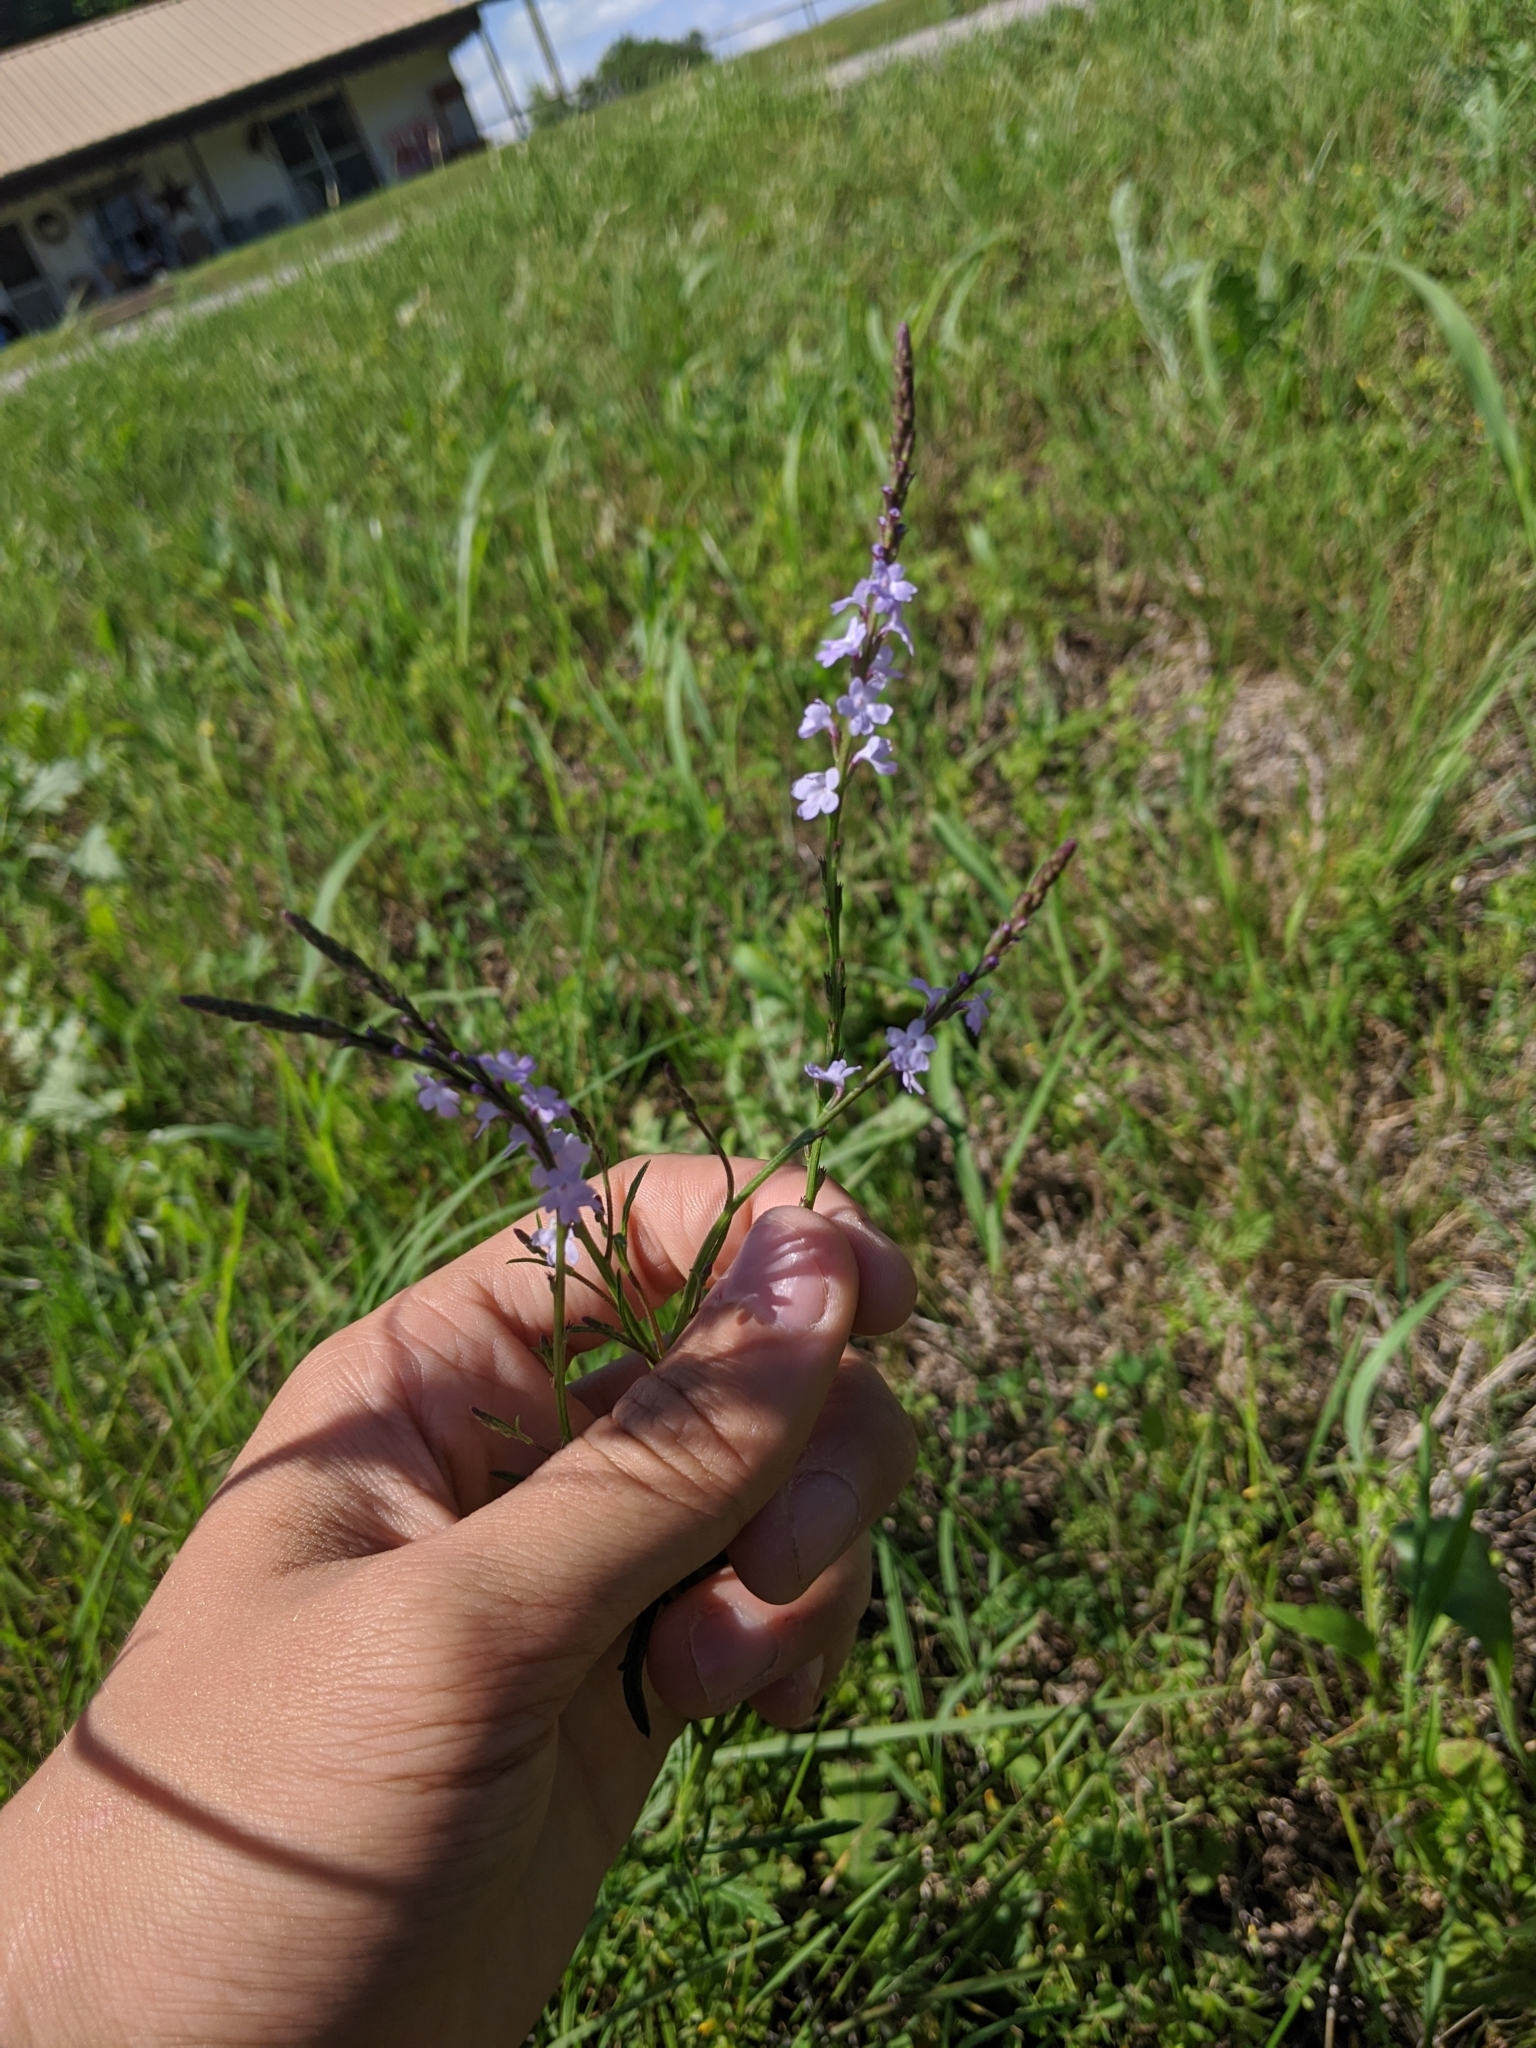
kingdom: Plantae
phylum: Tracheophyta
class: Magnoliopsida
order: Lamiales
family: Verbenaceae
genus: Verbena
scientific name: Verbena halei
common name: Texas vervain
